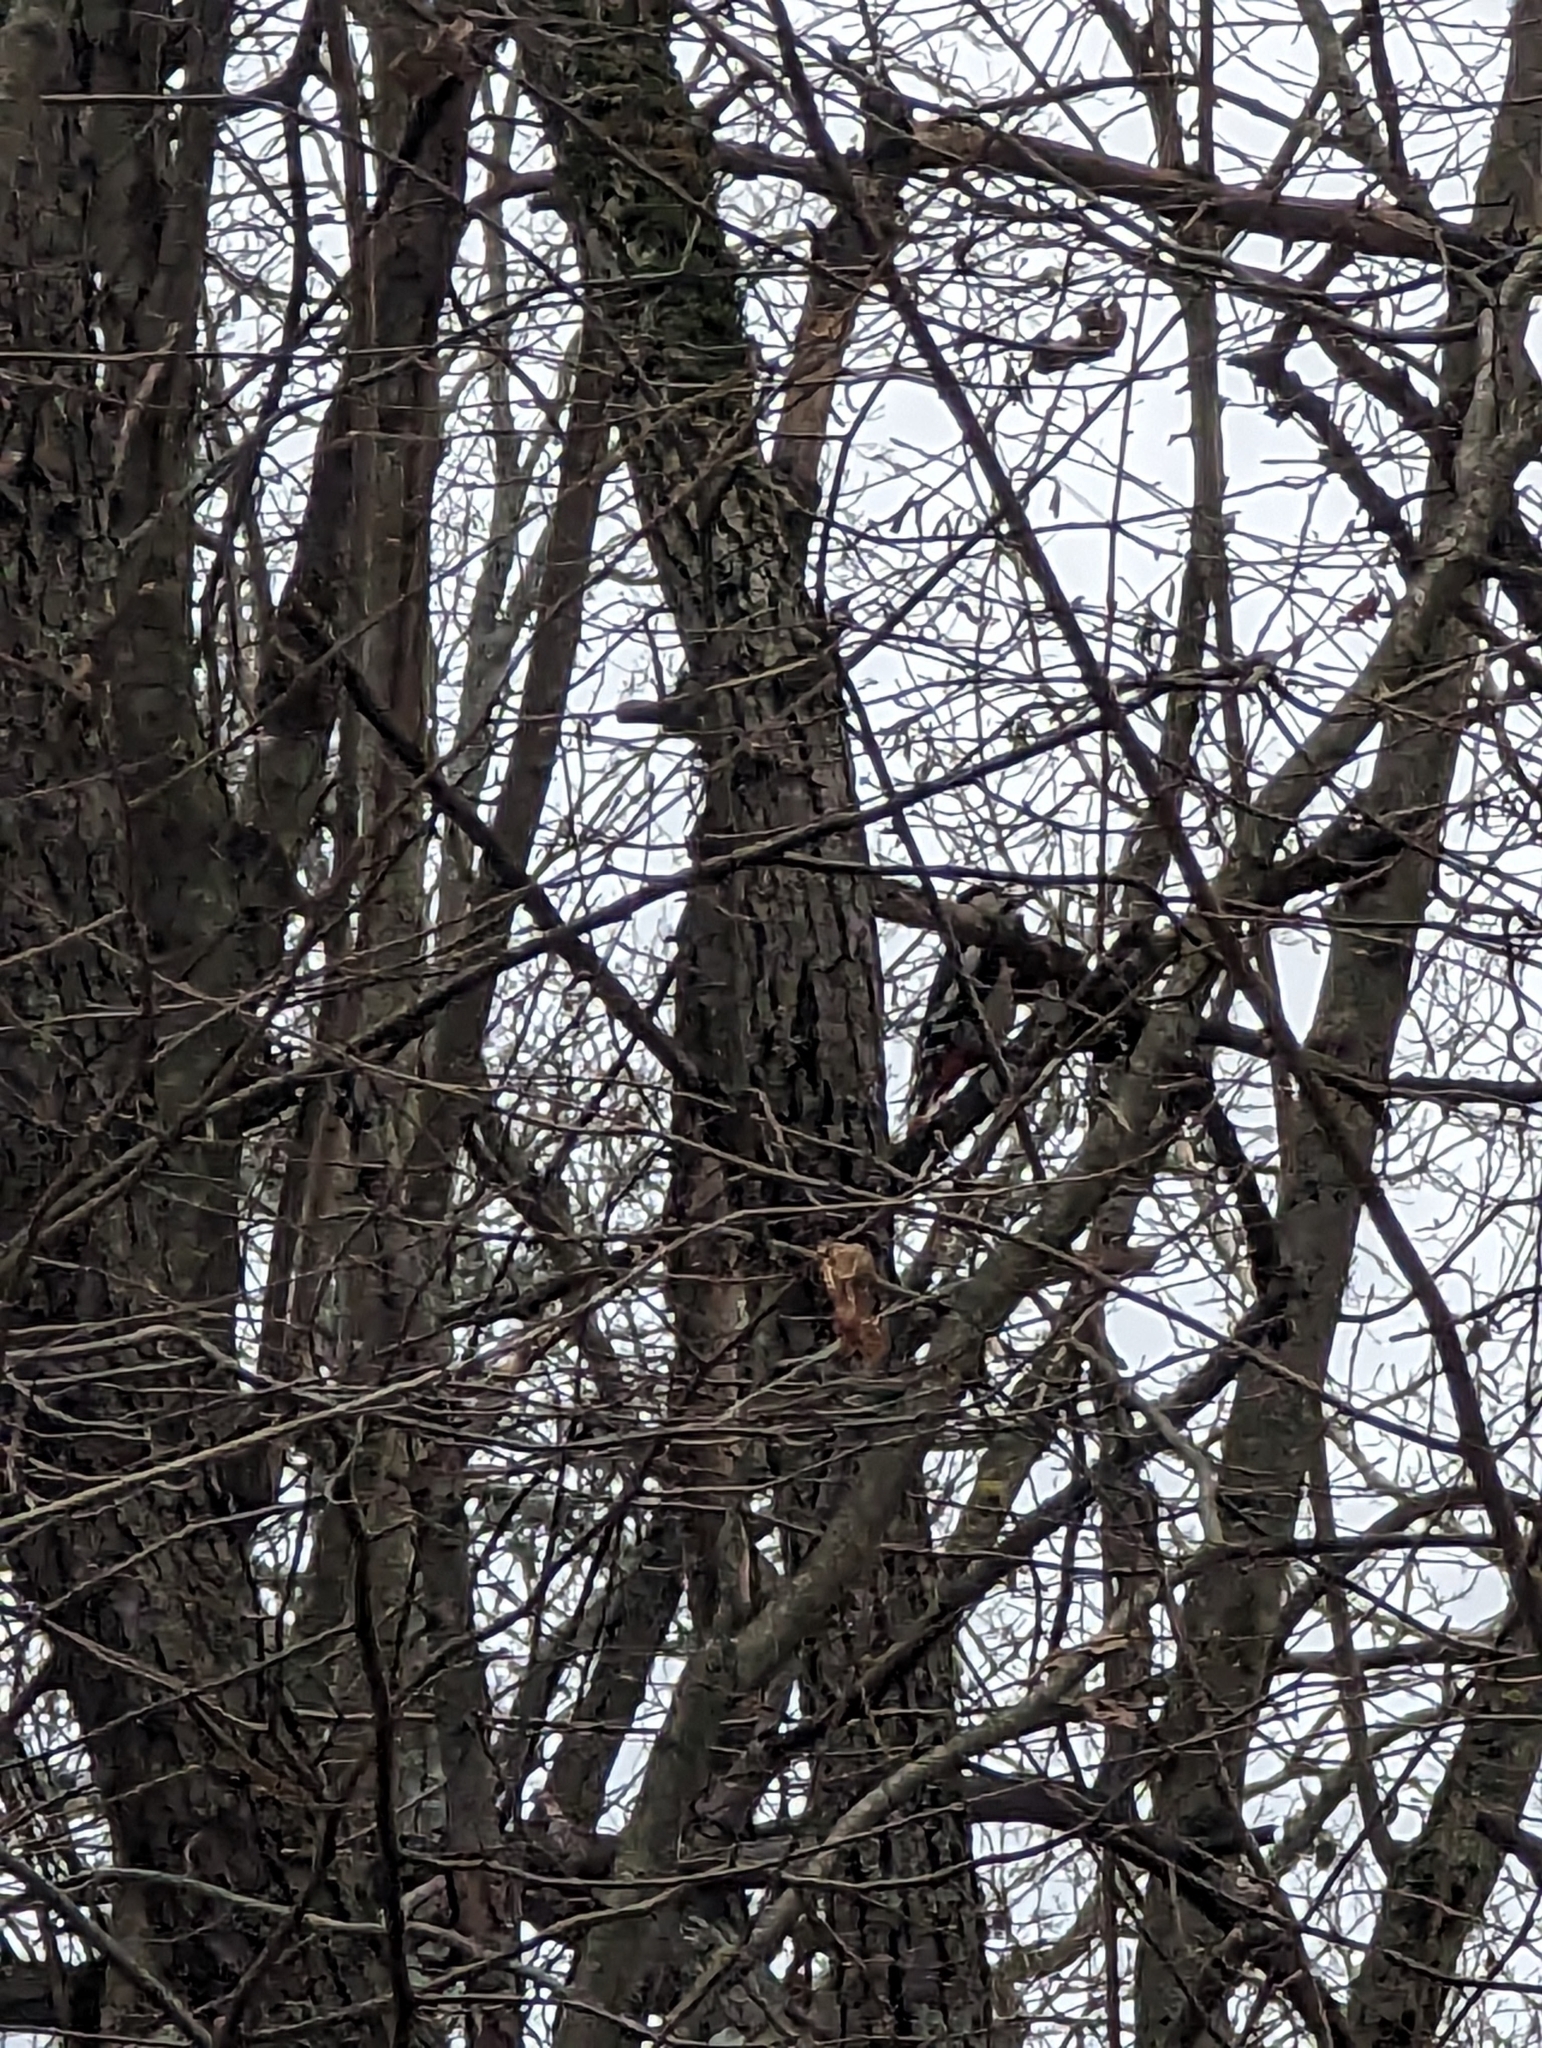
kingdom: Animalia
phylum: Chordata
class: Aves
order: Piciformes
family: Picidae
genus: Dendrocopos
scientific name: Dendrocopos major
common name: Great spotted woodpecker
